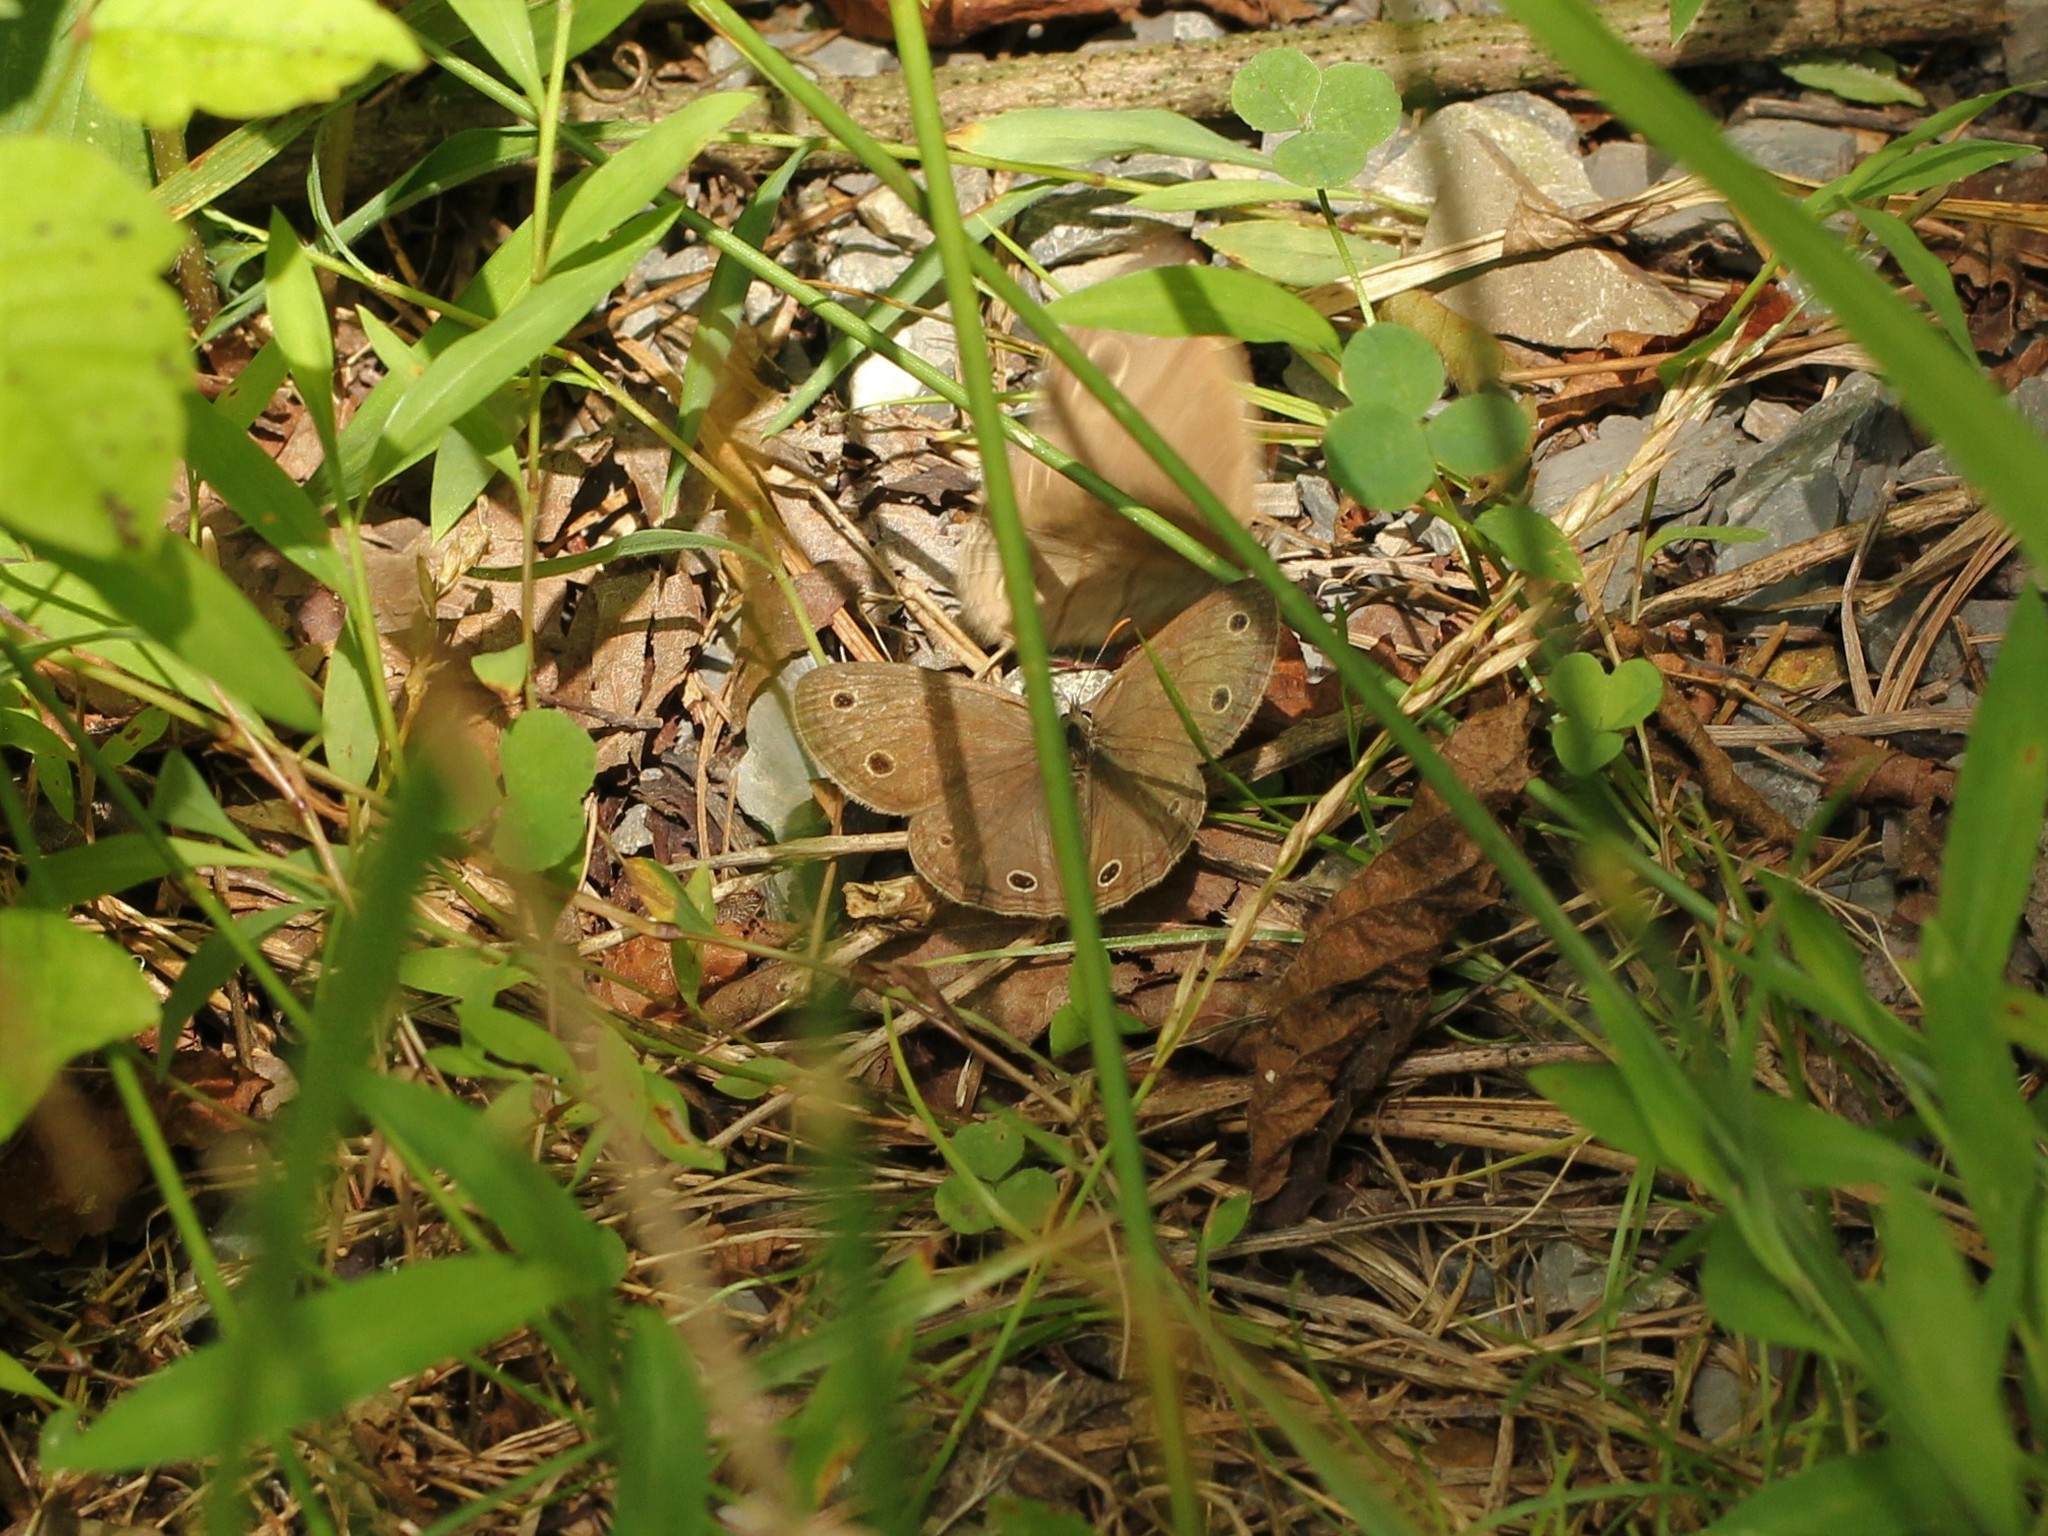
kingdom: Animalia
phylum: Arthropoda
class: Insecta
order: Lepidoptera
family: Nymphalidae
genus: Euptychia
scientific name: Euptychia cymela
